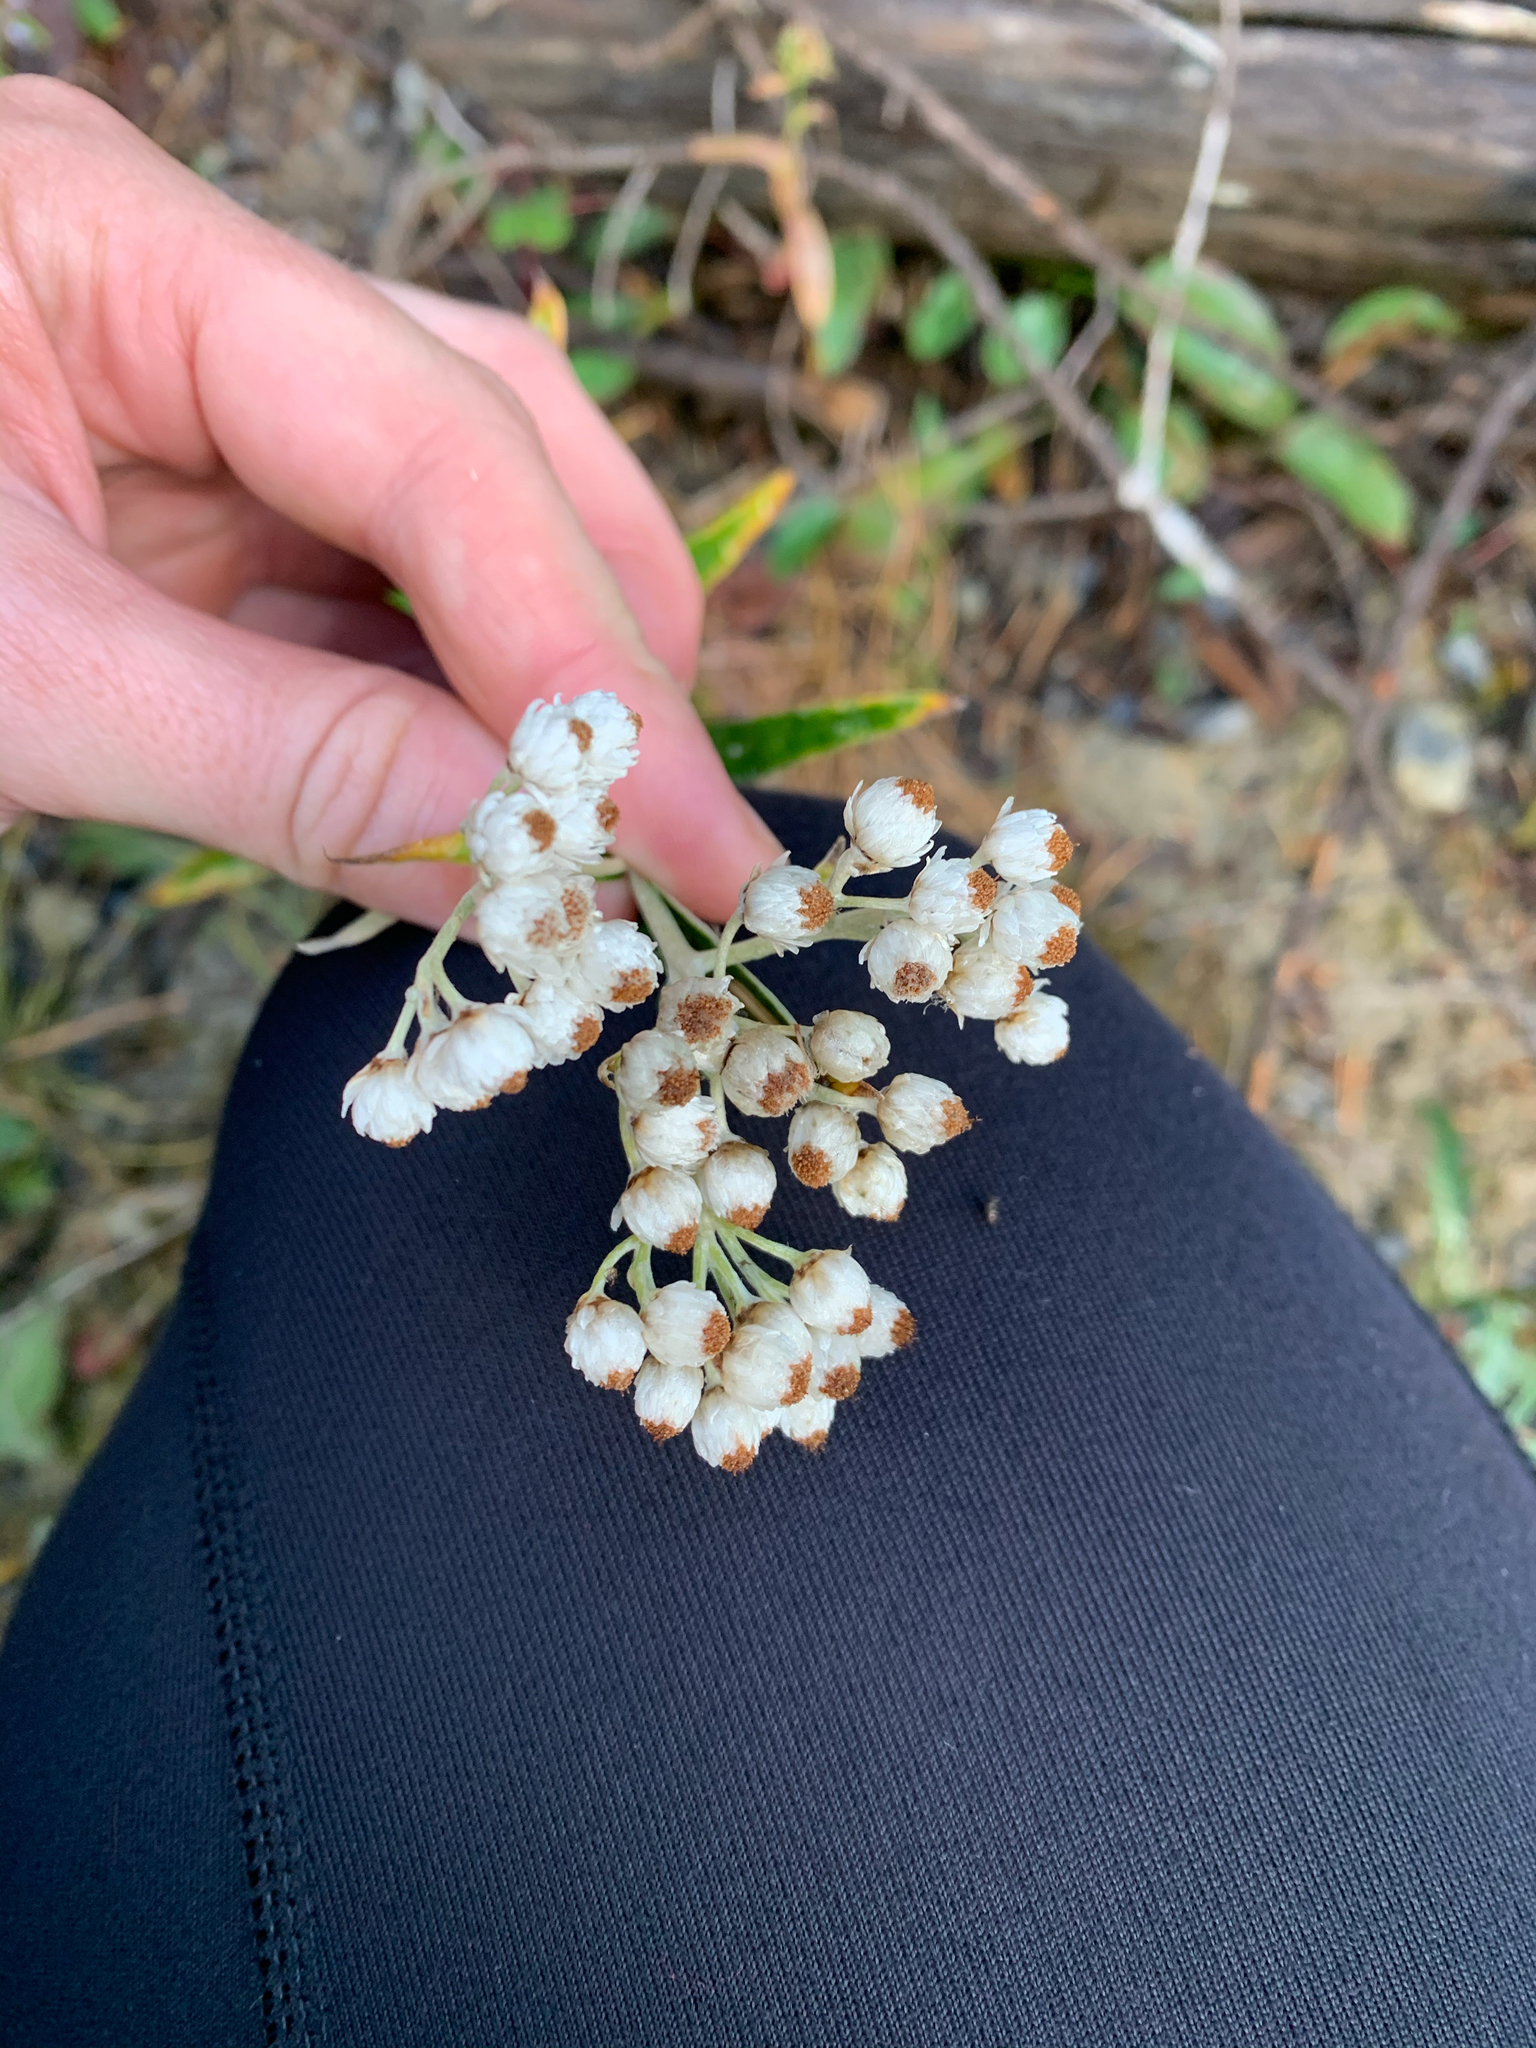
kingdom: Plantae
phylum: Tracheophyta
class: Magnoliopsida
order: Asterales
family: Asteraceae
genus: Anaphalis
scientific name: Anaphalis margaritacea
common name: Pearly everlasting
